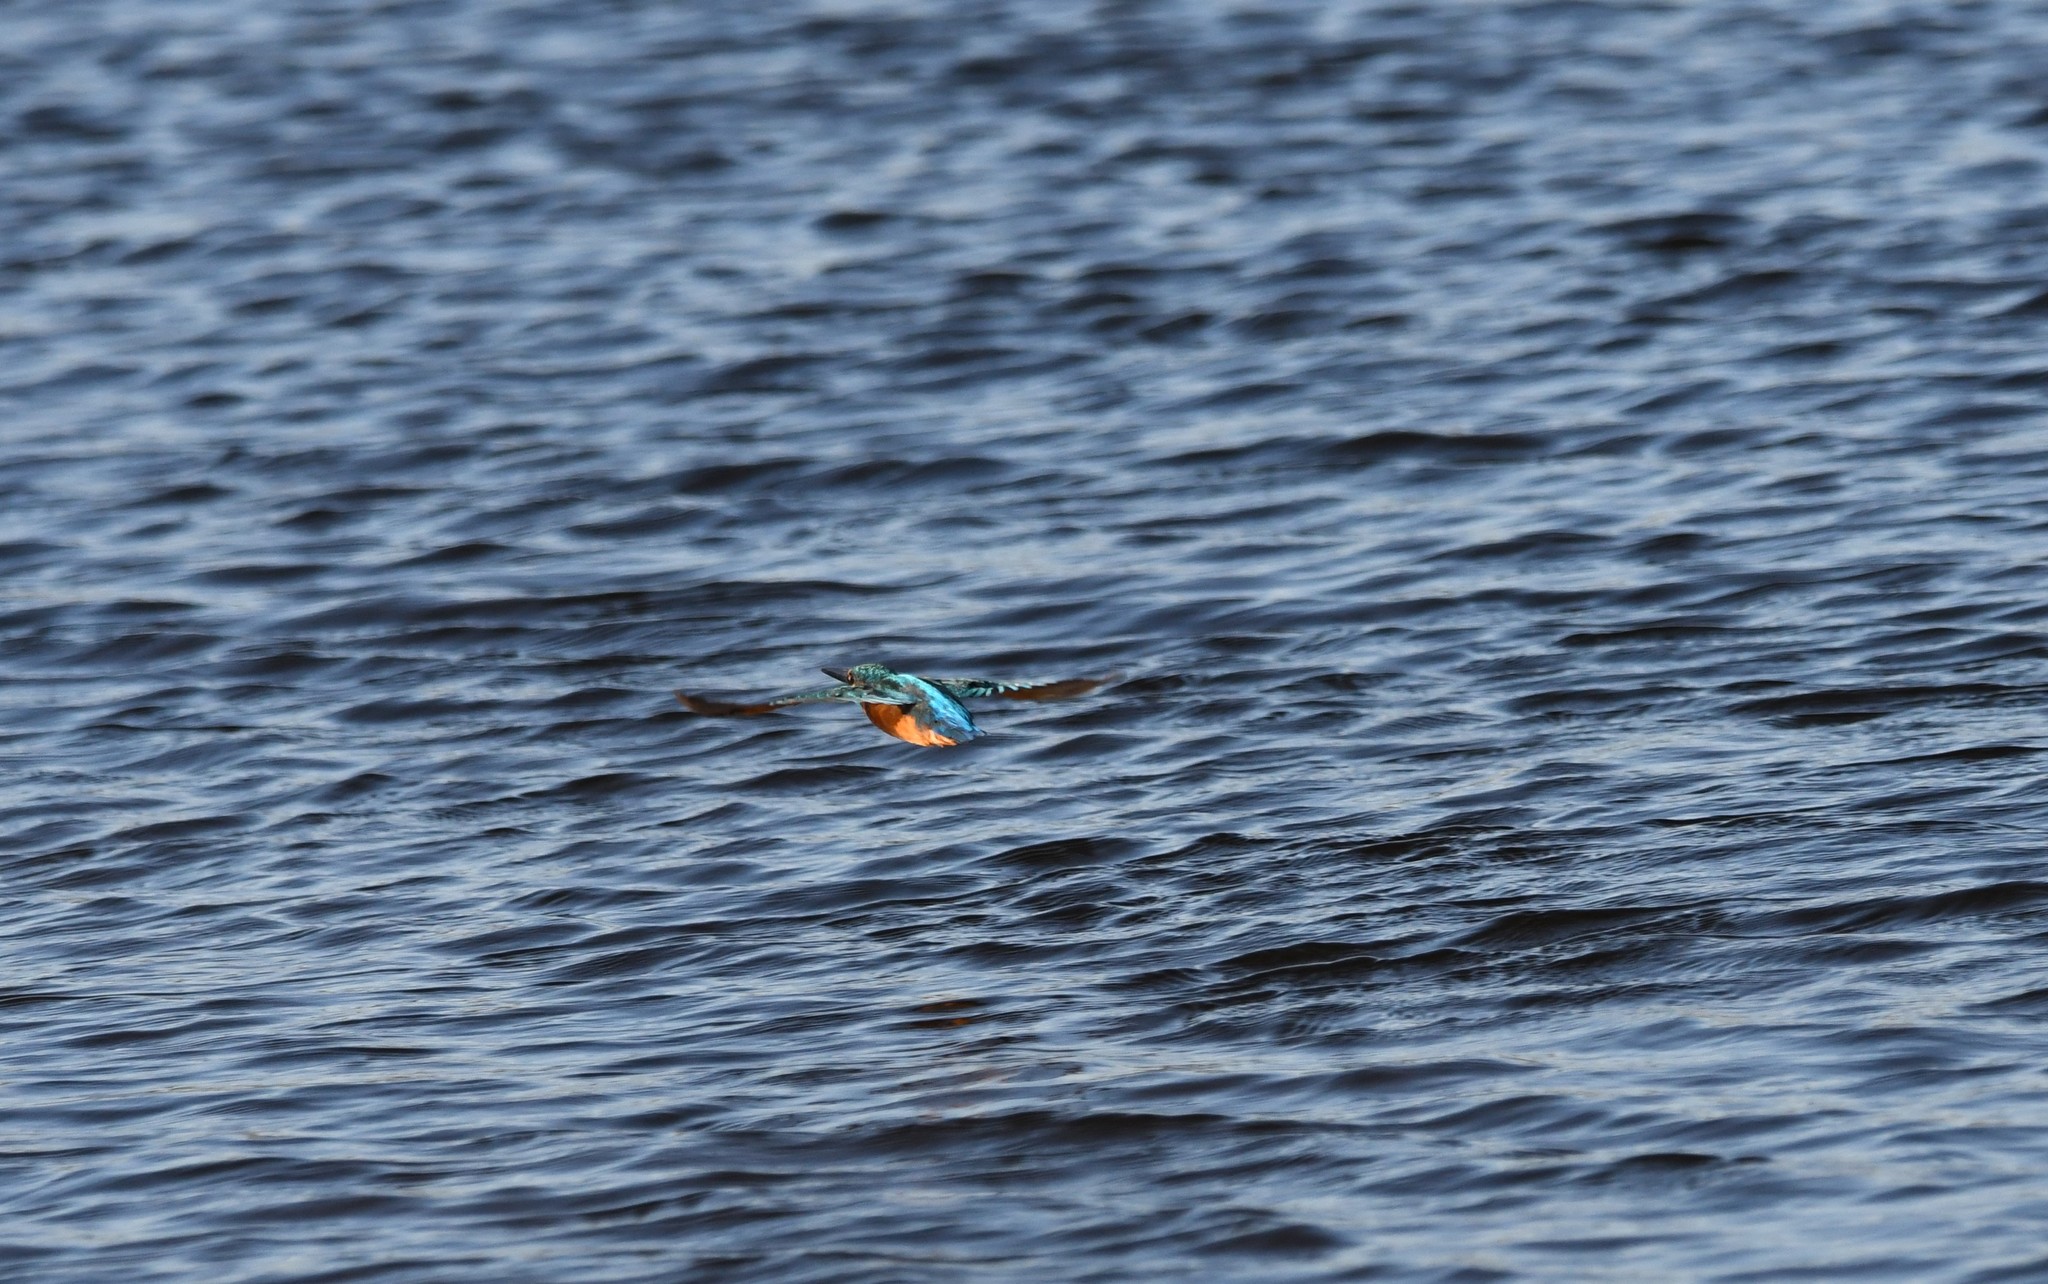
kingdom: Animalia
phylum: Chordata
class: Aves
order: Coraciiformes
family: Alcedinidae
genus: Alcedo
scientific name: Alcedo atthis
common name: Common kingfisher
